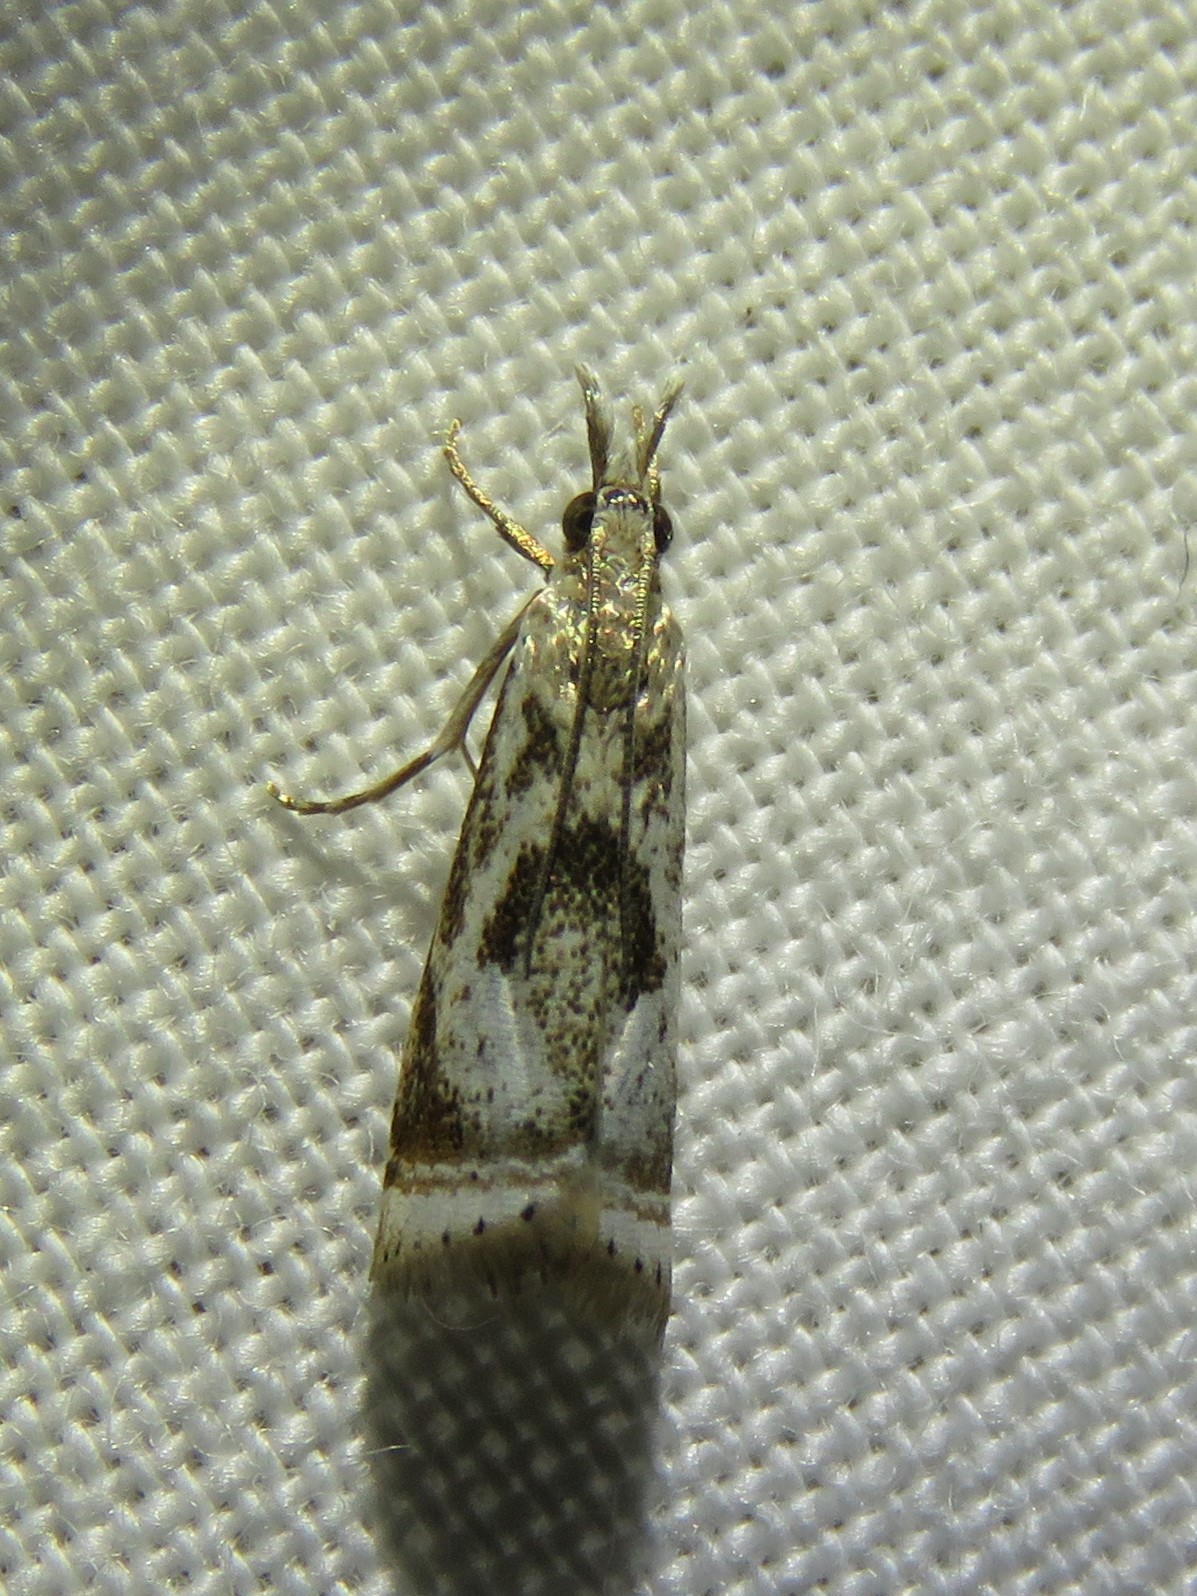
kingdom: Animalia
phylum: Arthropoda
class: Insecta
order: Lepidoptera
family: Crambidae
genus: Microcrambus
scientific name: Microcrambus elegans
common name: Elegant grass-veneer
